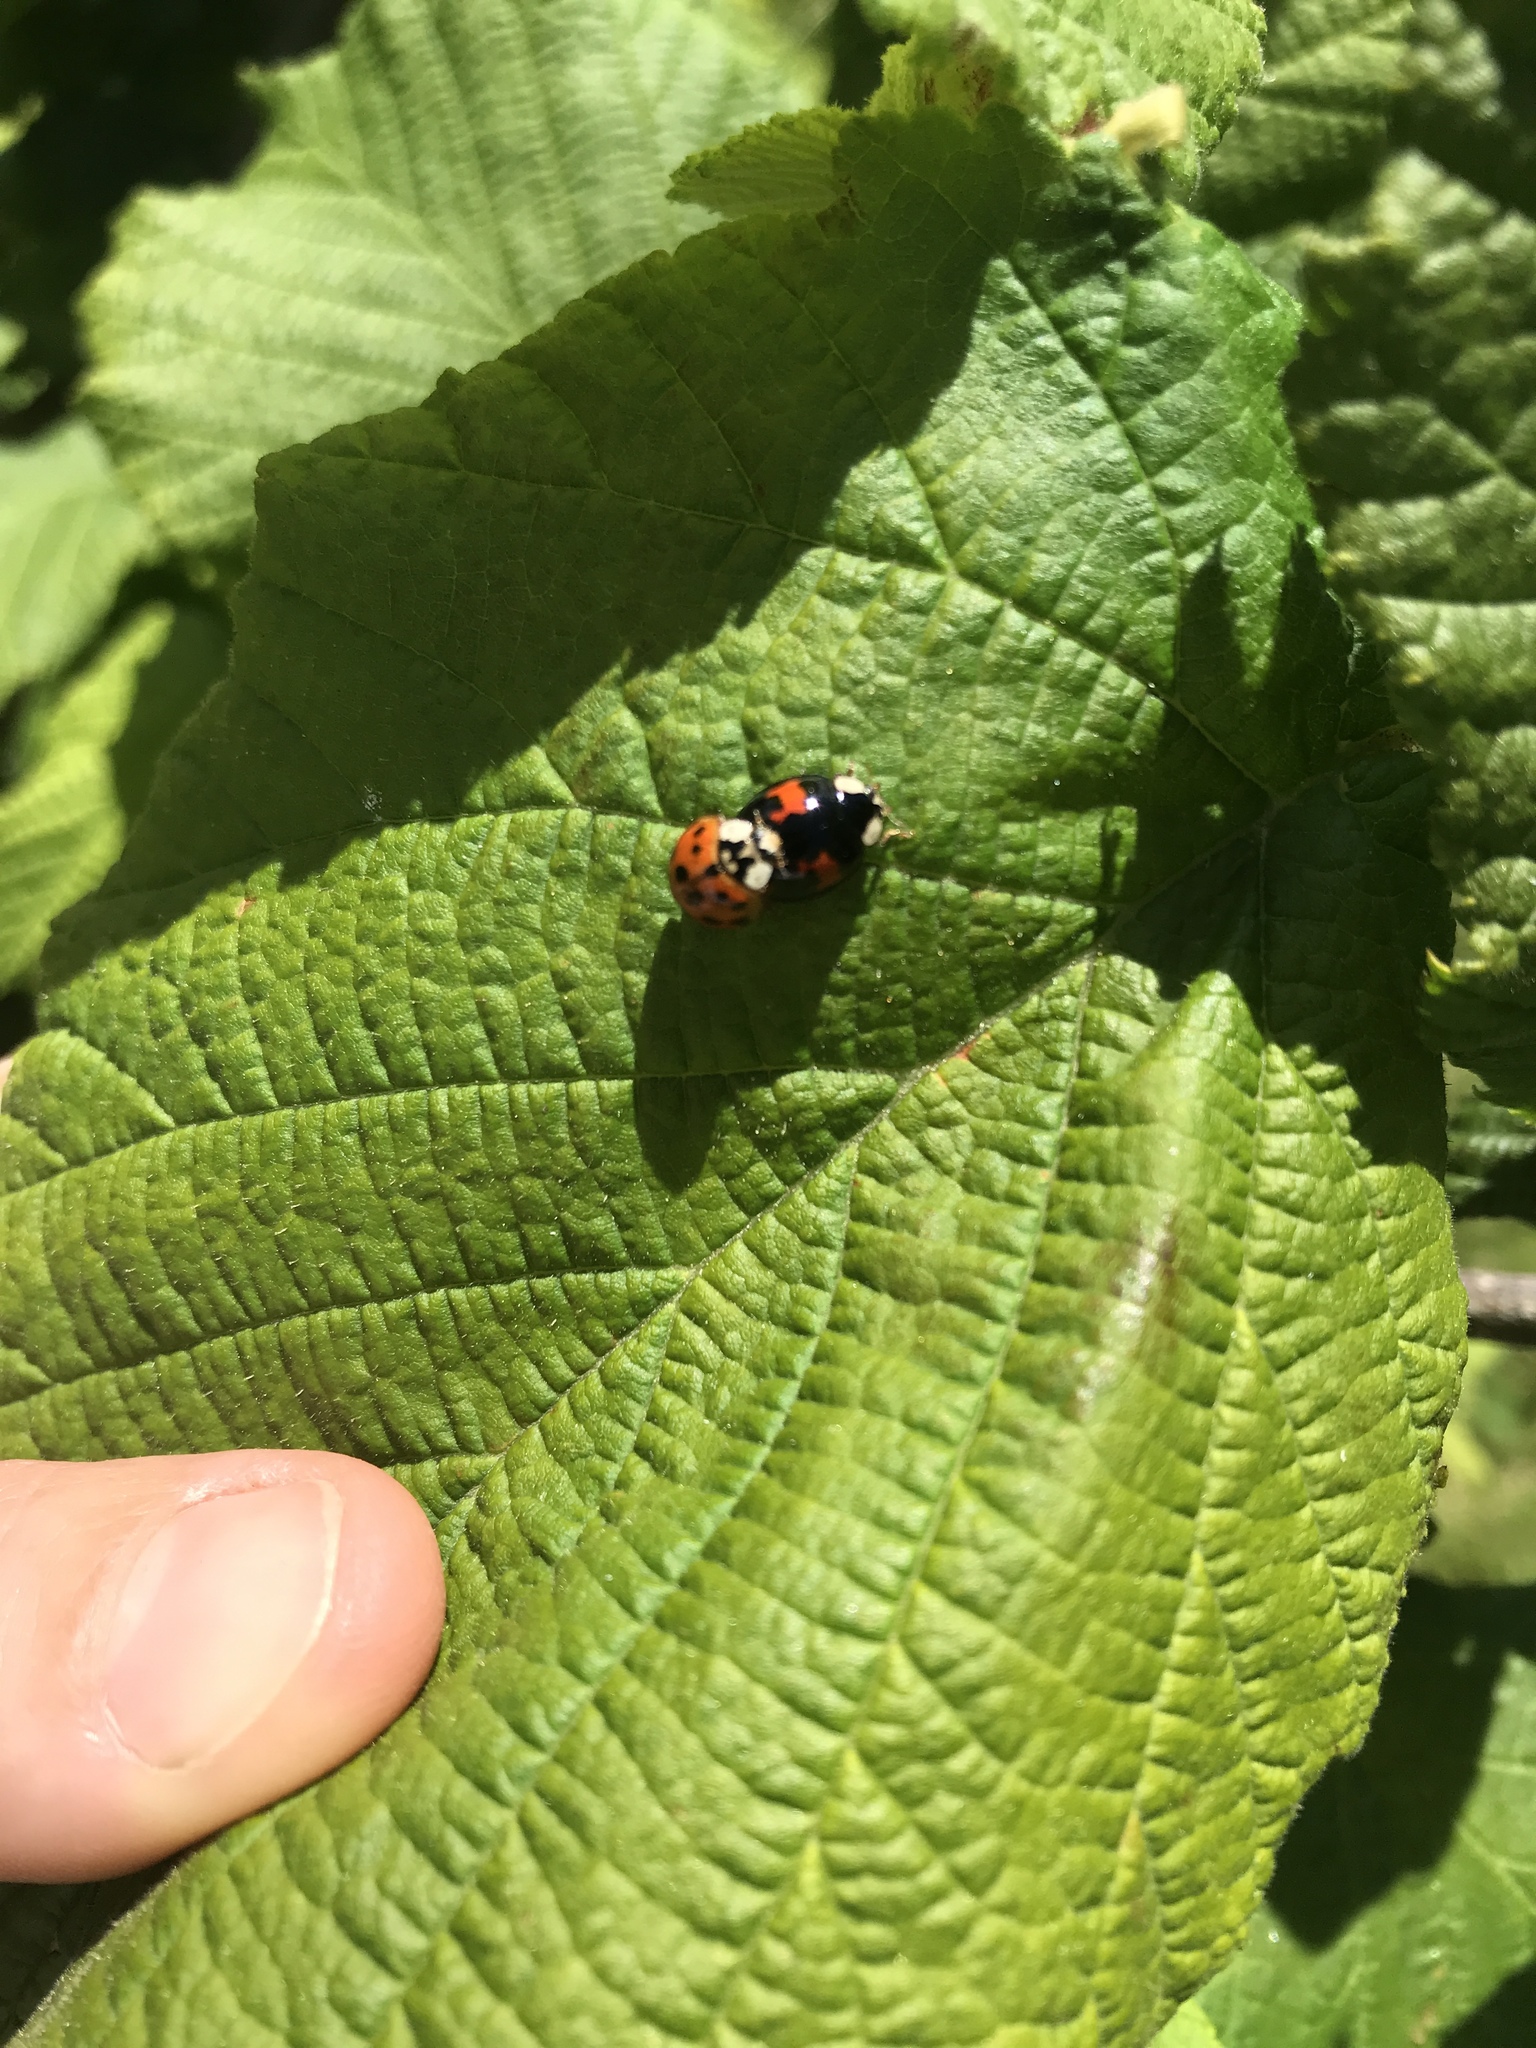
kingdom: Animalia
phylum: Arthropoda
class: Insecta
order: Coleoptera
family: Coccinellidae
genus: Harmonia
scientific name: Harmonia axyridis
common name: Harlequin ladybird
